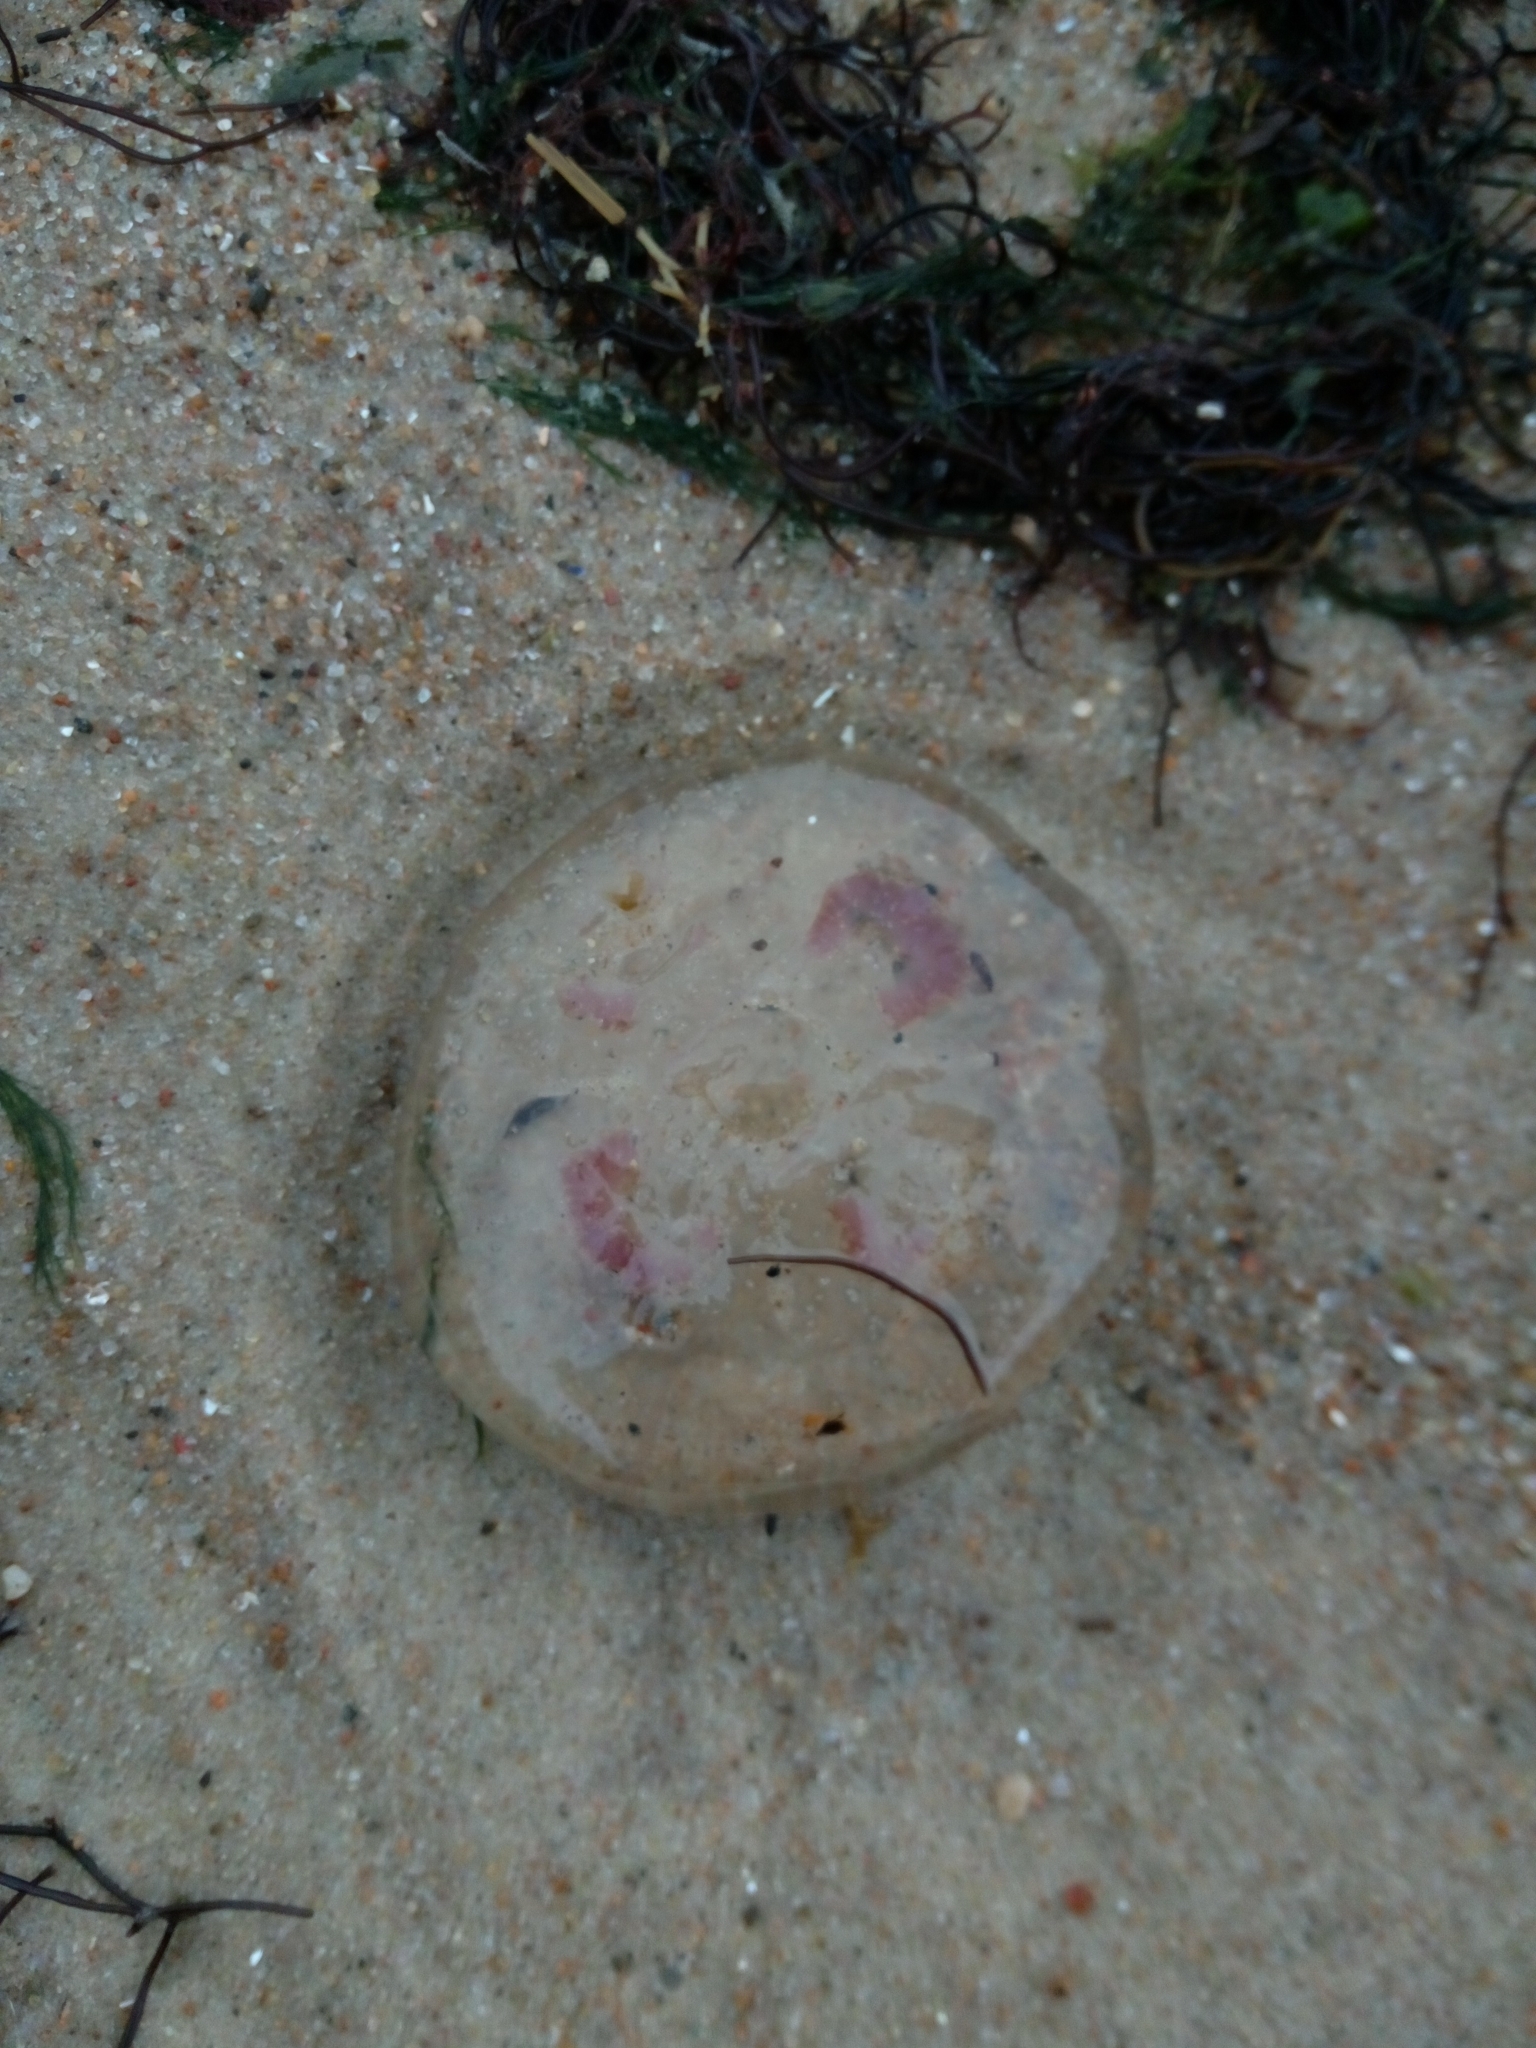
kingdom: Animalia
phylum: Cnidaria
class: Scyphozoa
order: Semaeostomeae
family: Ulmaridae
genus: Aurelia
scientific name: Aurelia aurita
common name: Moon jellyfish
